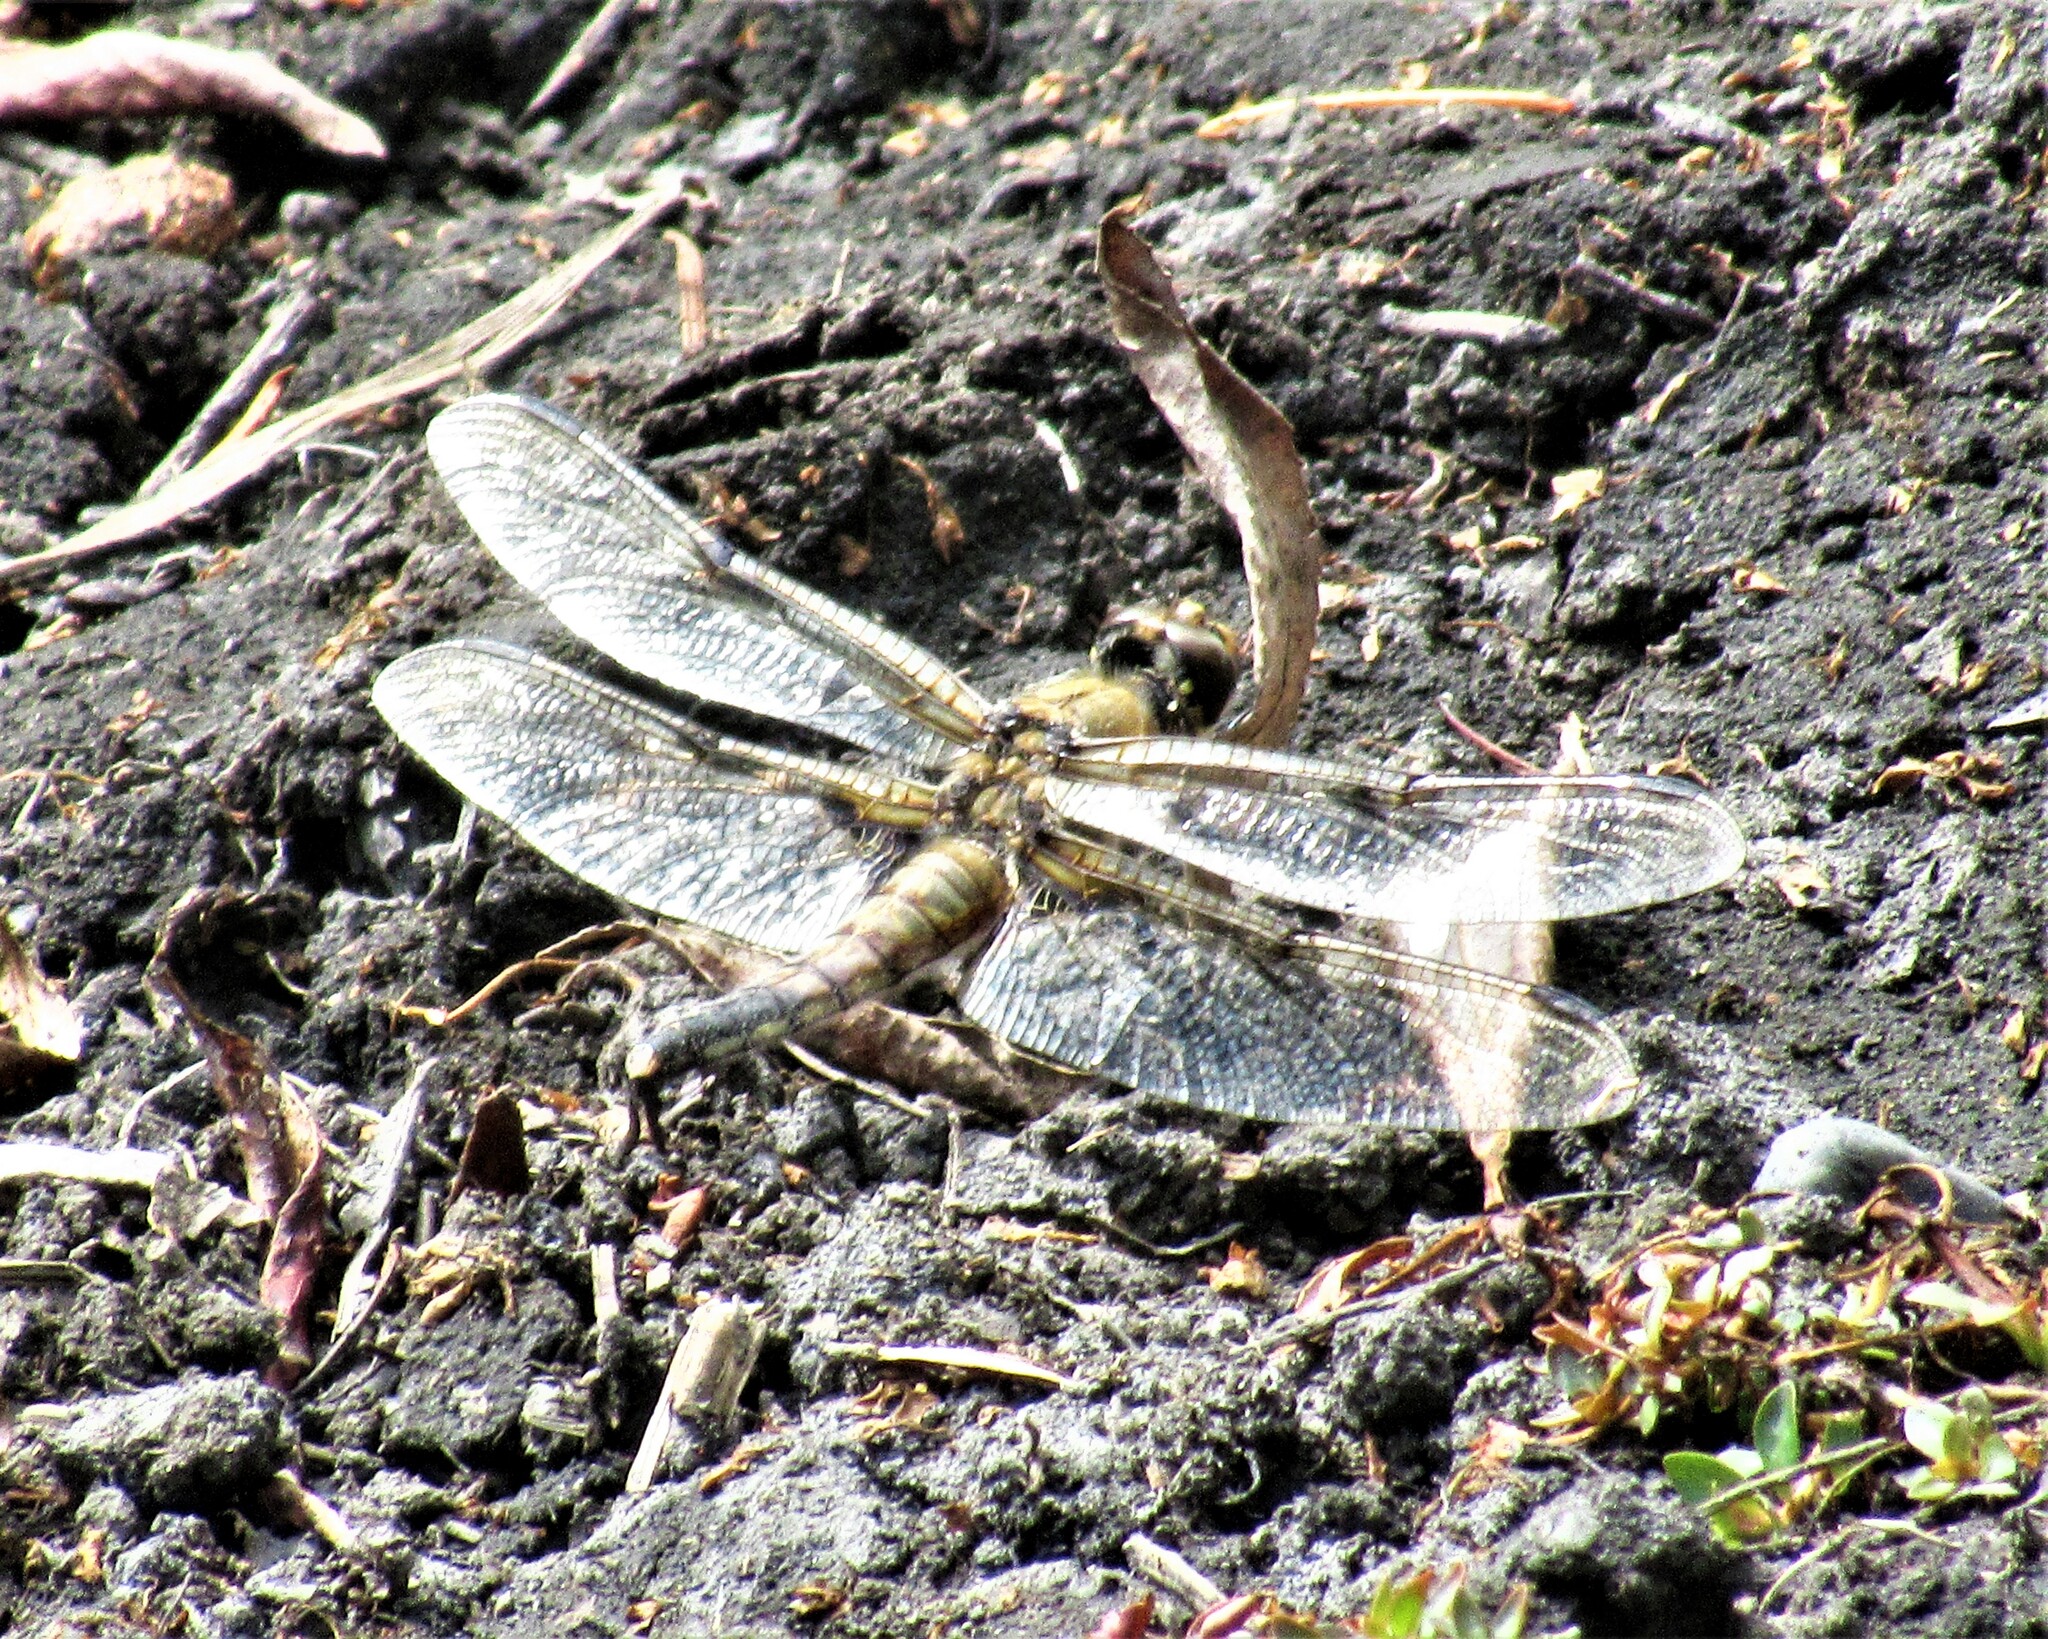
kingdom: Animalia
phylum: Arthropoda
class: Insecta
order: Odonata
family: Libellulidae
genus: Libellula
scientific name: Libellula quadrimaculata
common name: Four-spotted chaser
